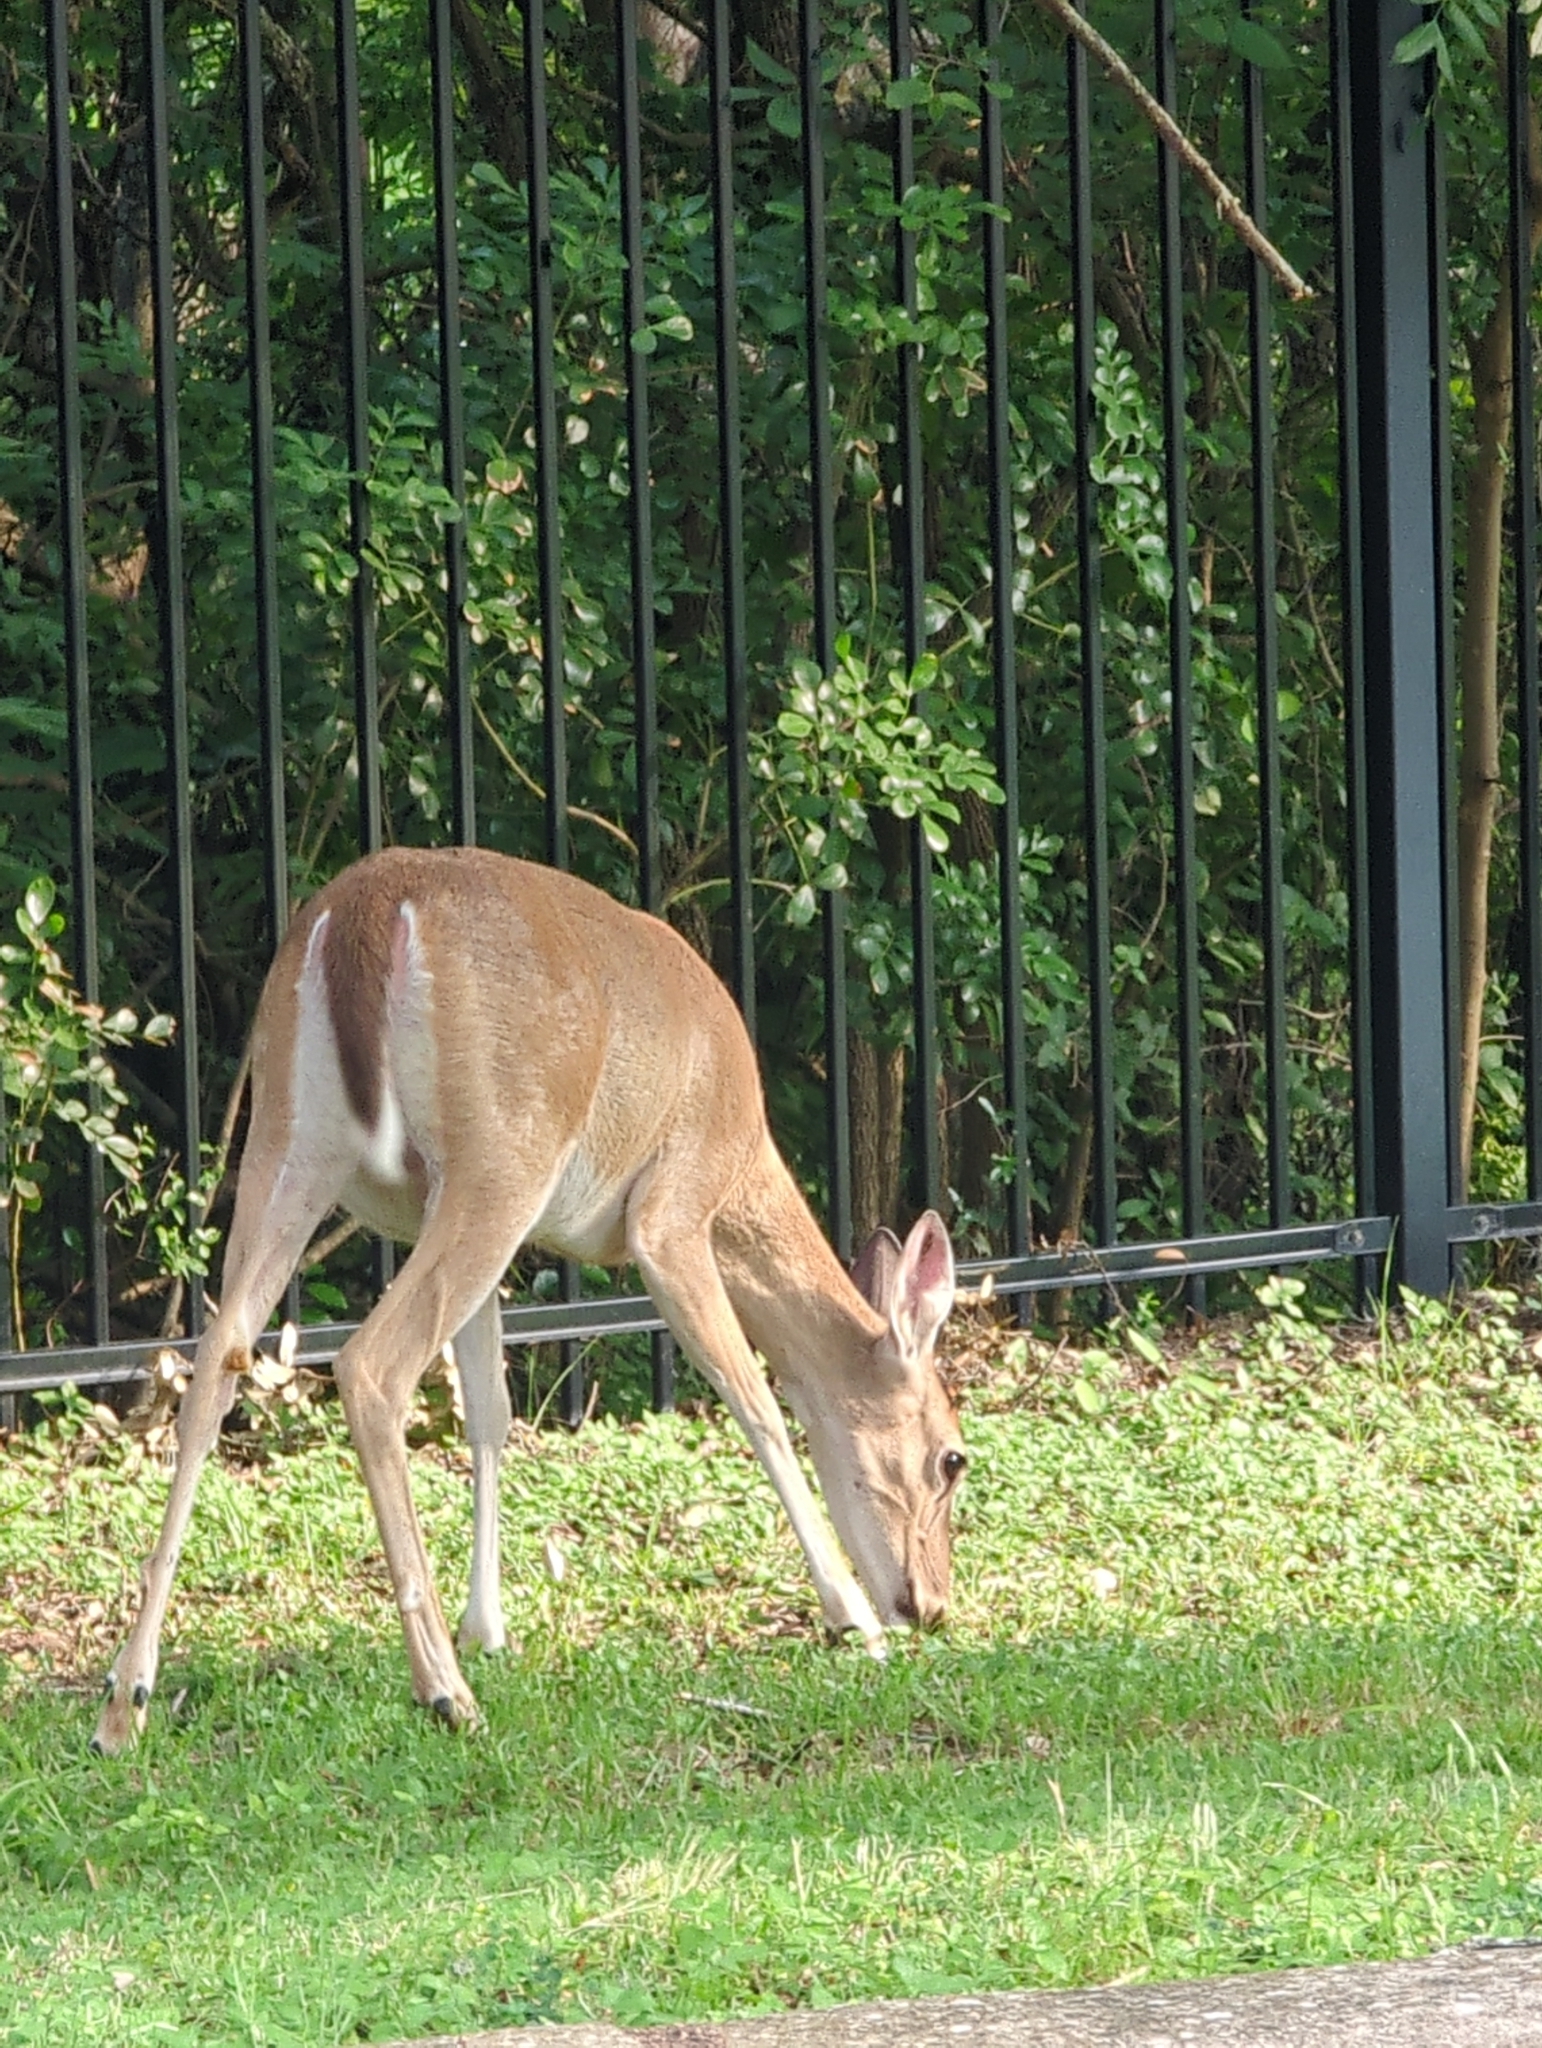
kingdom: Animalia
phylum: Chordata
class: Mammalia
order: Artiodactyla
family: Cervidae
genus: Odocoileus
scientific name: Odocoileus virginianus
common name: White-tailed deer
